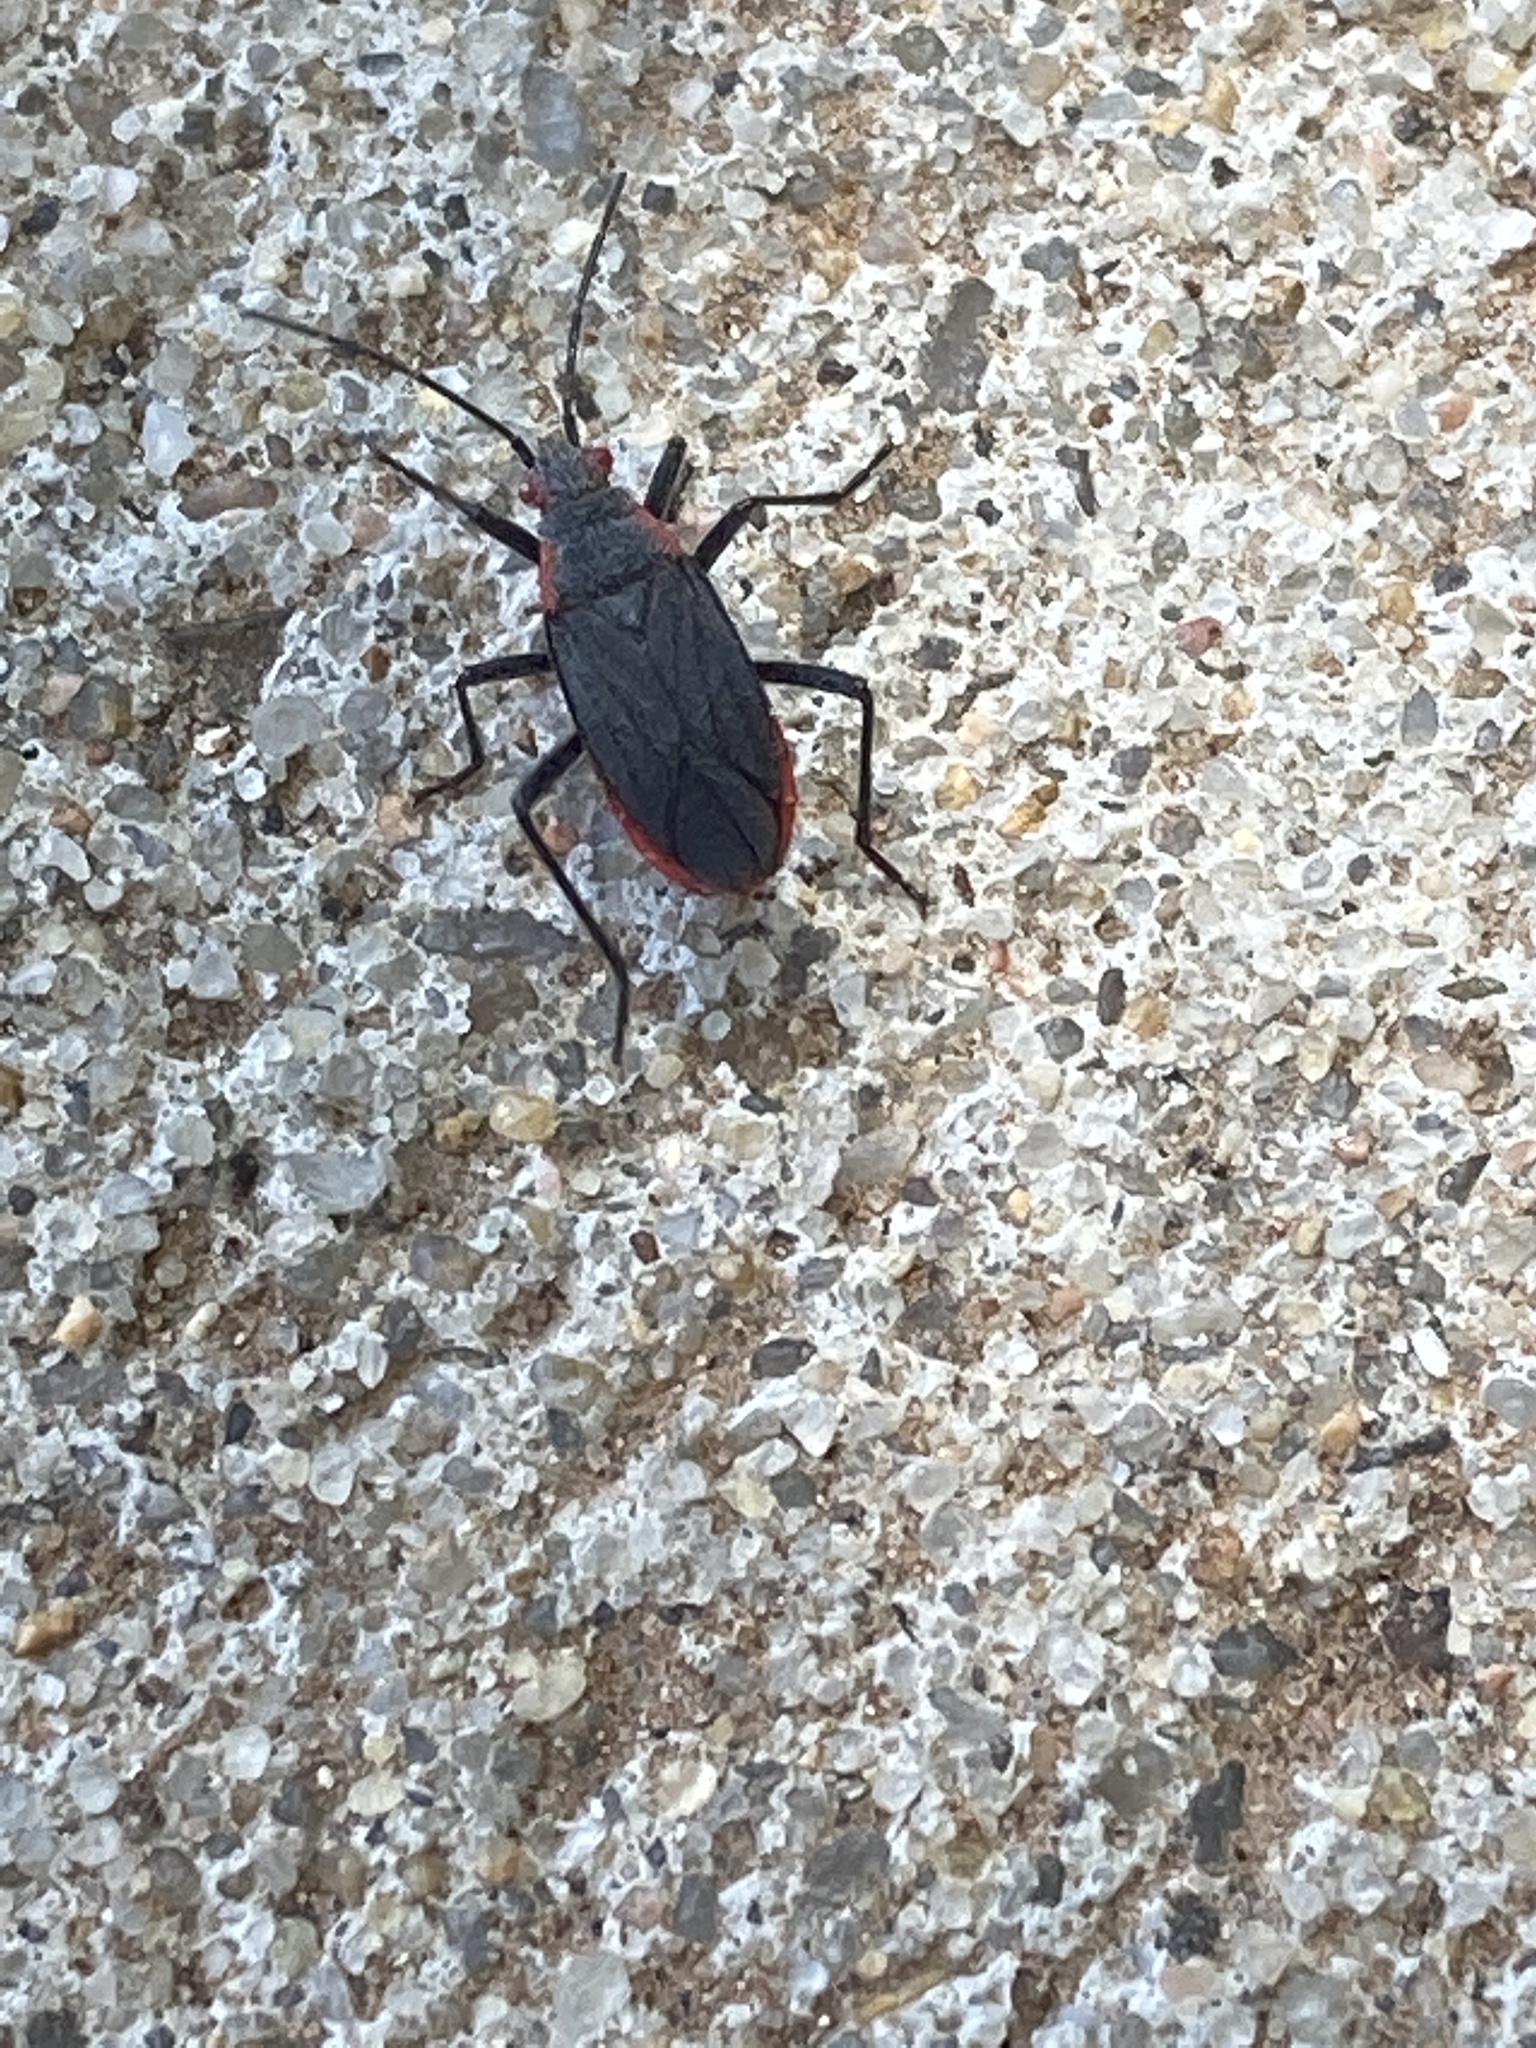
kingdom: Animalia
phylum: Arthropoda
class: Insecta
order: Hemiptera
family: Rhopalidae
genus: Jadera
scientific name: Jadera haematoloma
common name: Red-shouldered bug
